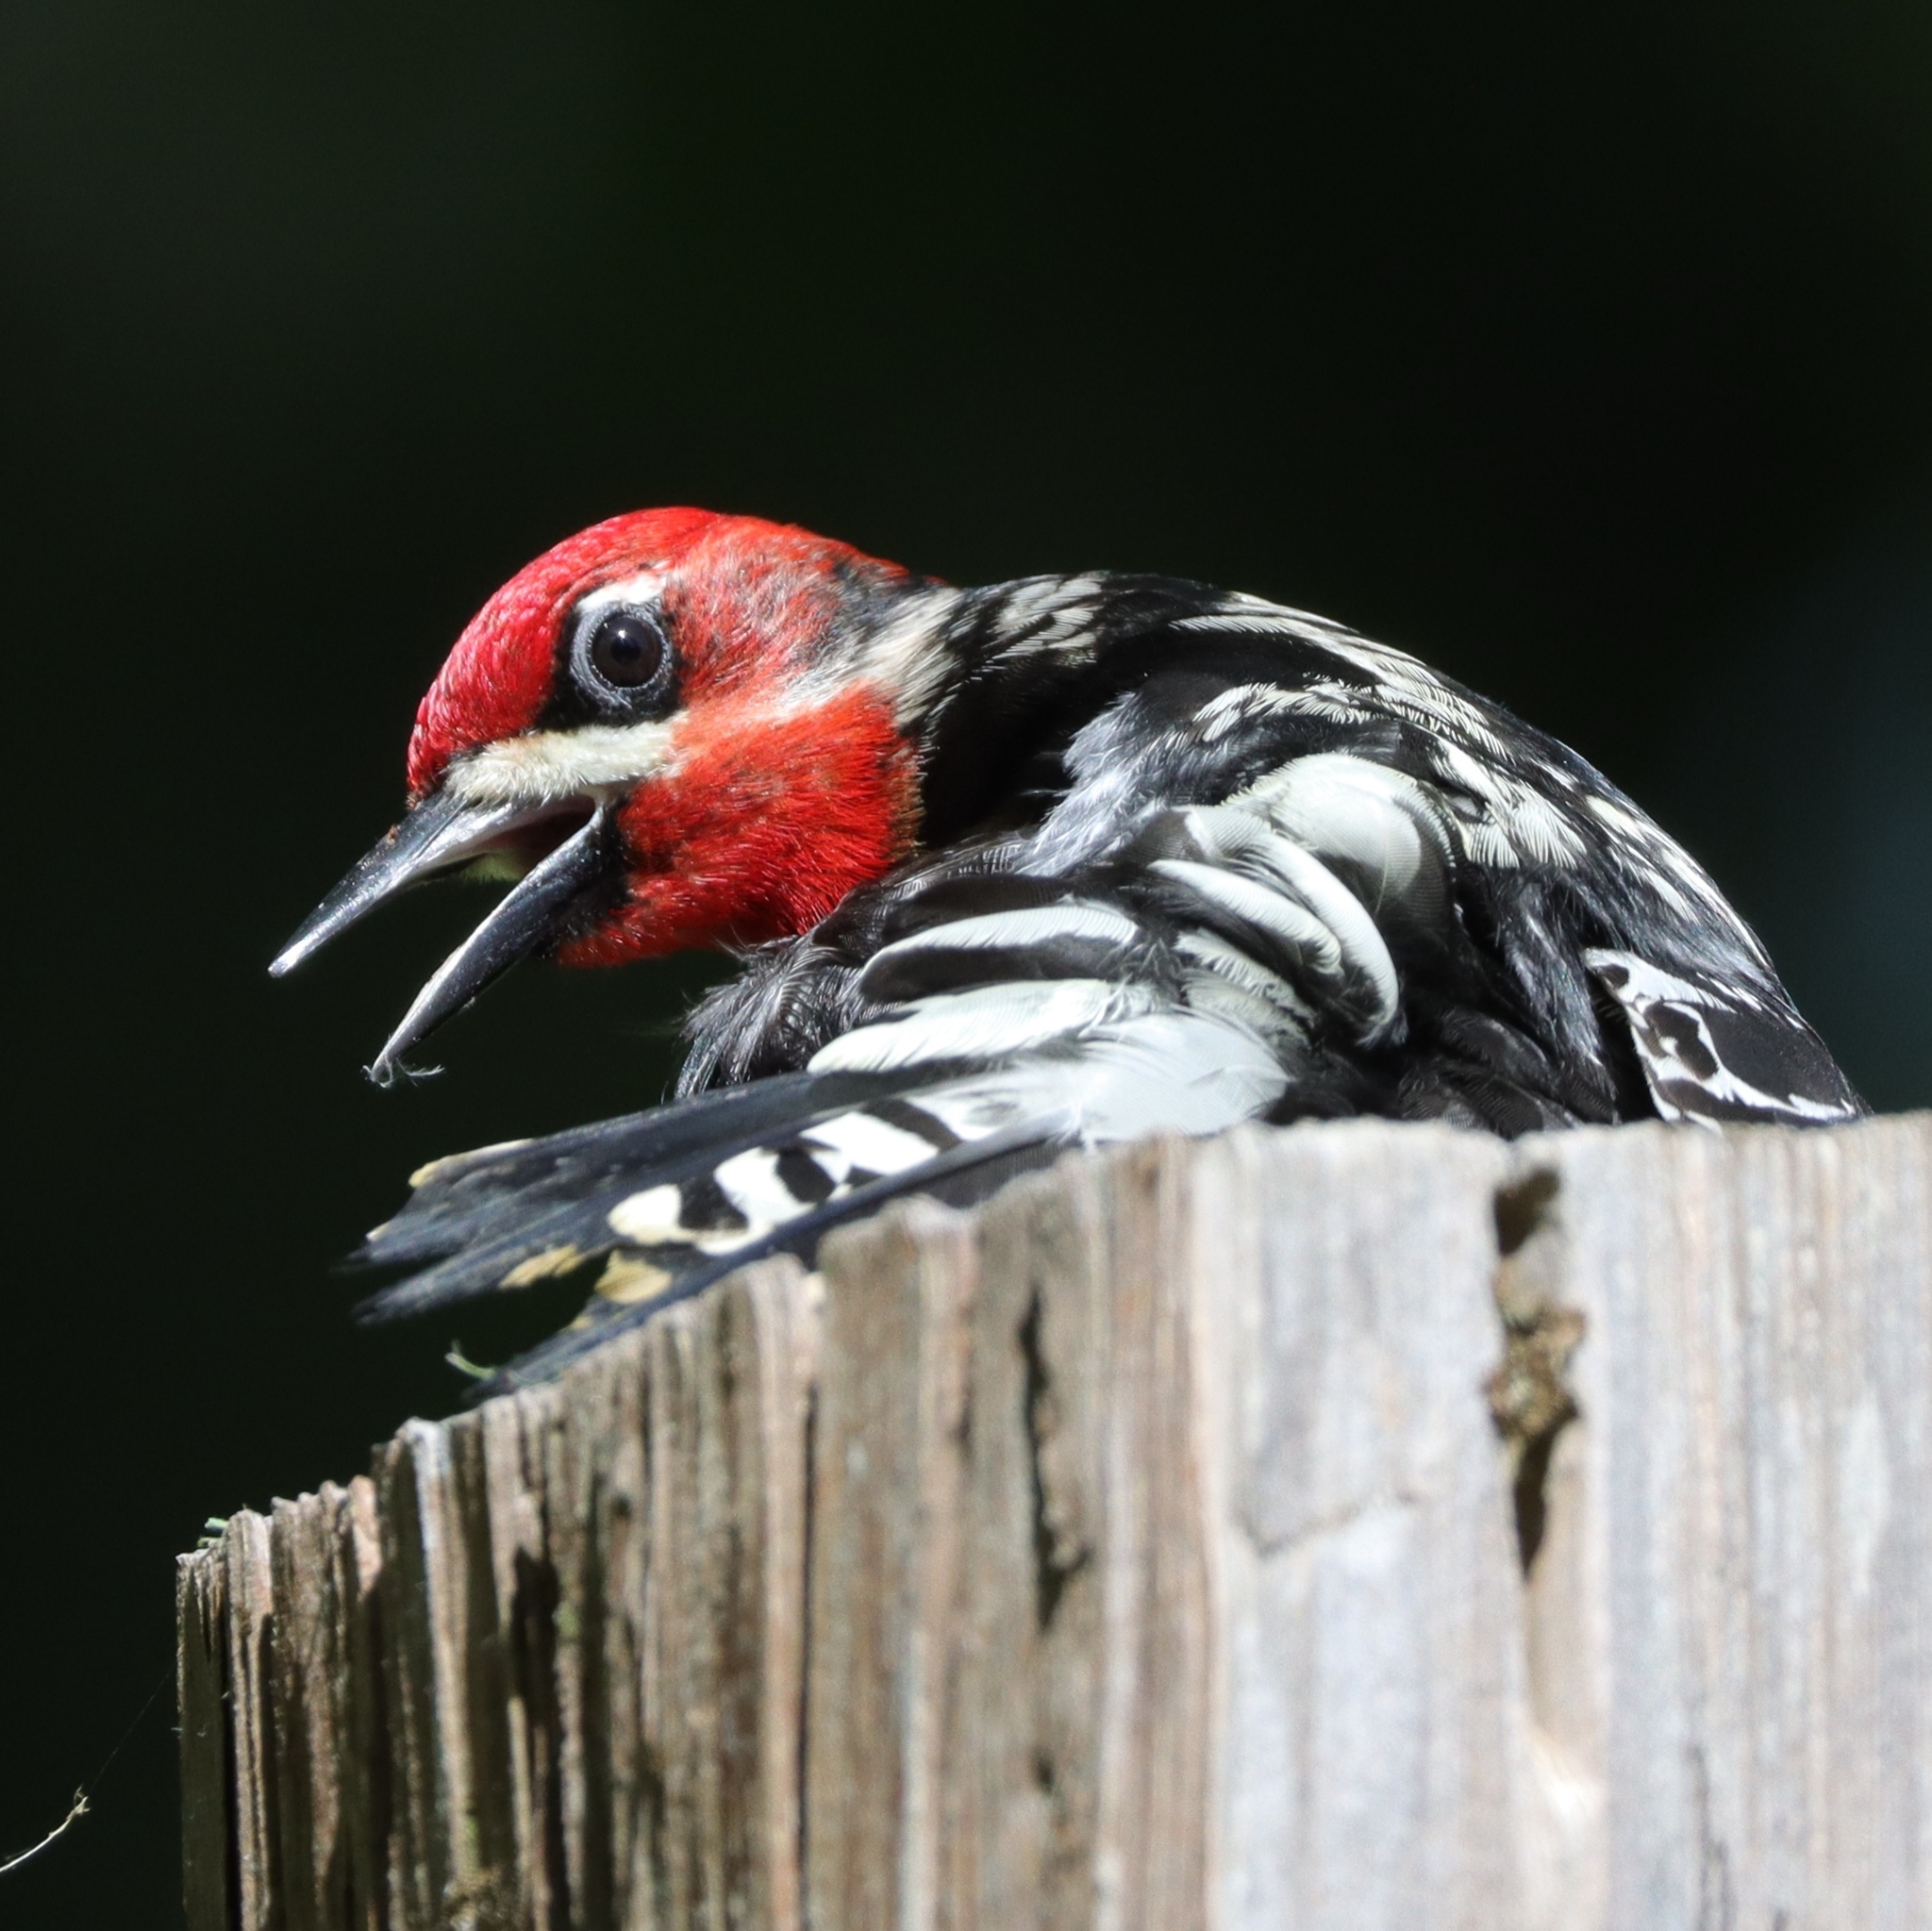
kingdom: Animalia
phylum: Chordata
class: Aves
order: Piciformes
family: Picidae
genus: Sphyrapicus
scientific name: Sphyrapicus ruber
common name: Red-breasted sapsucker
